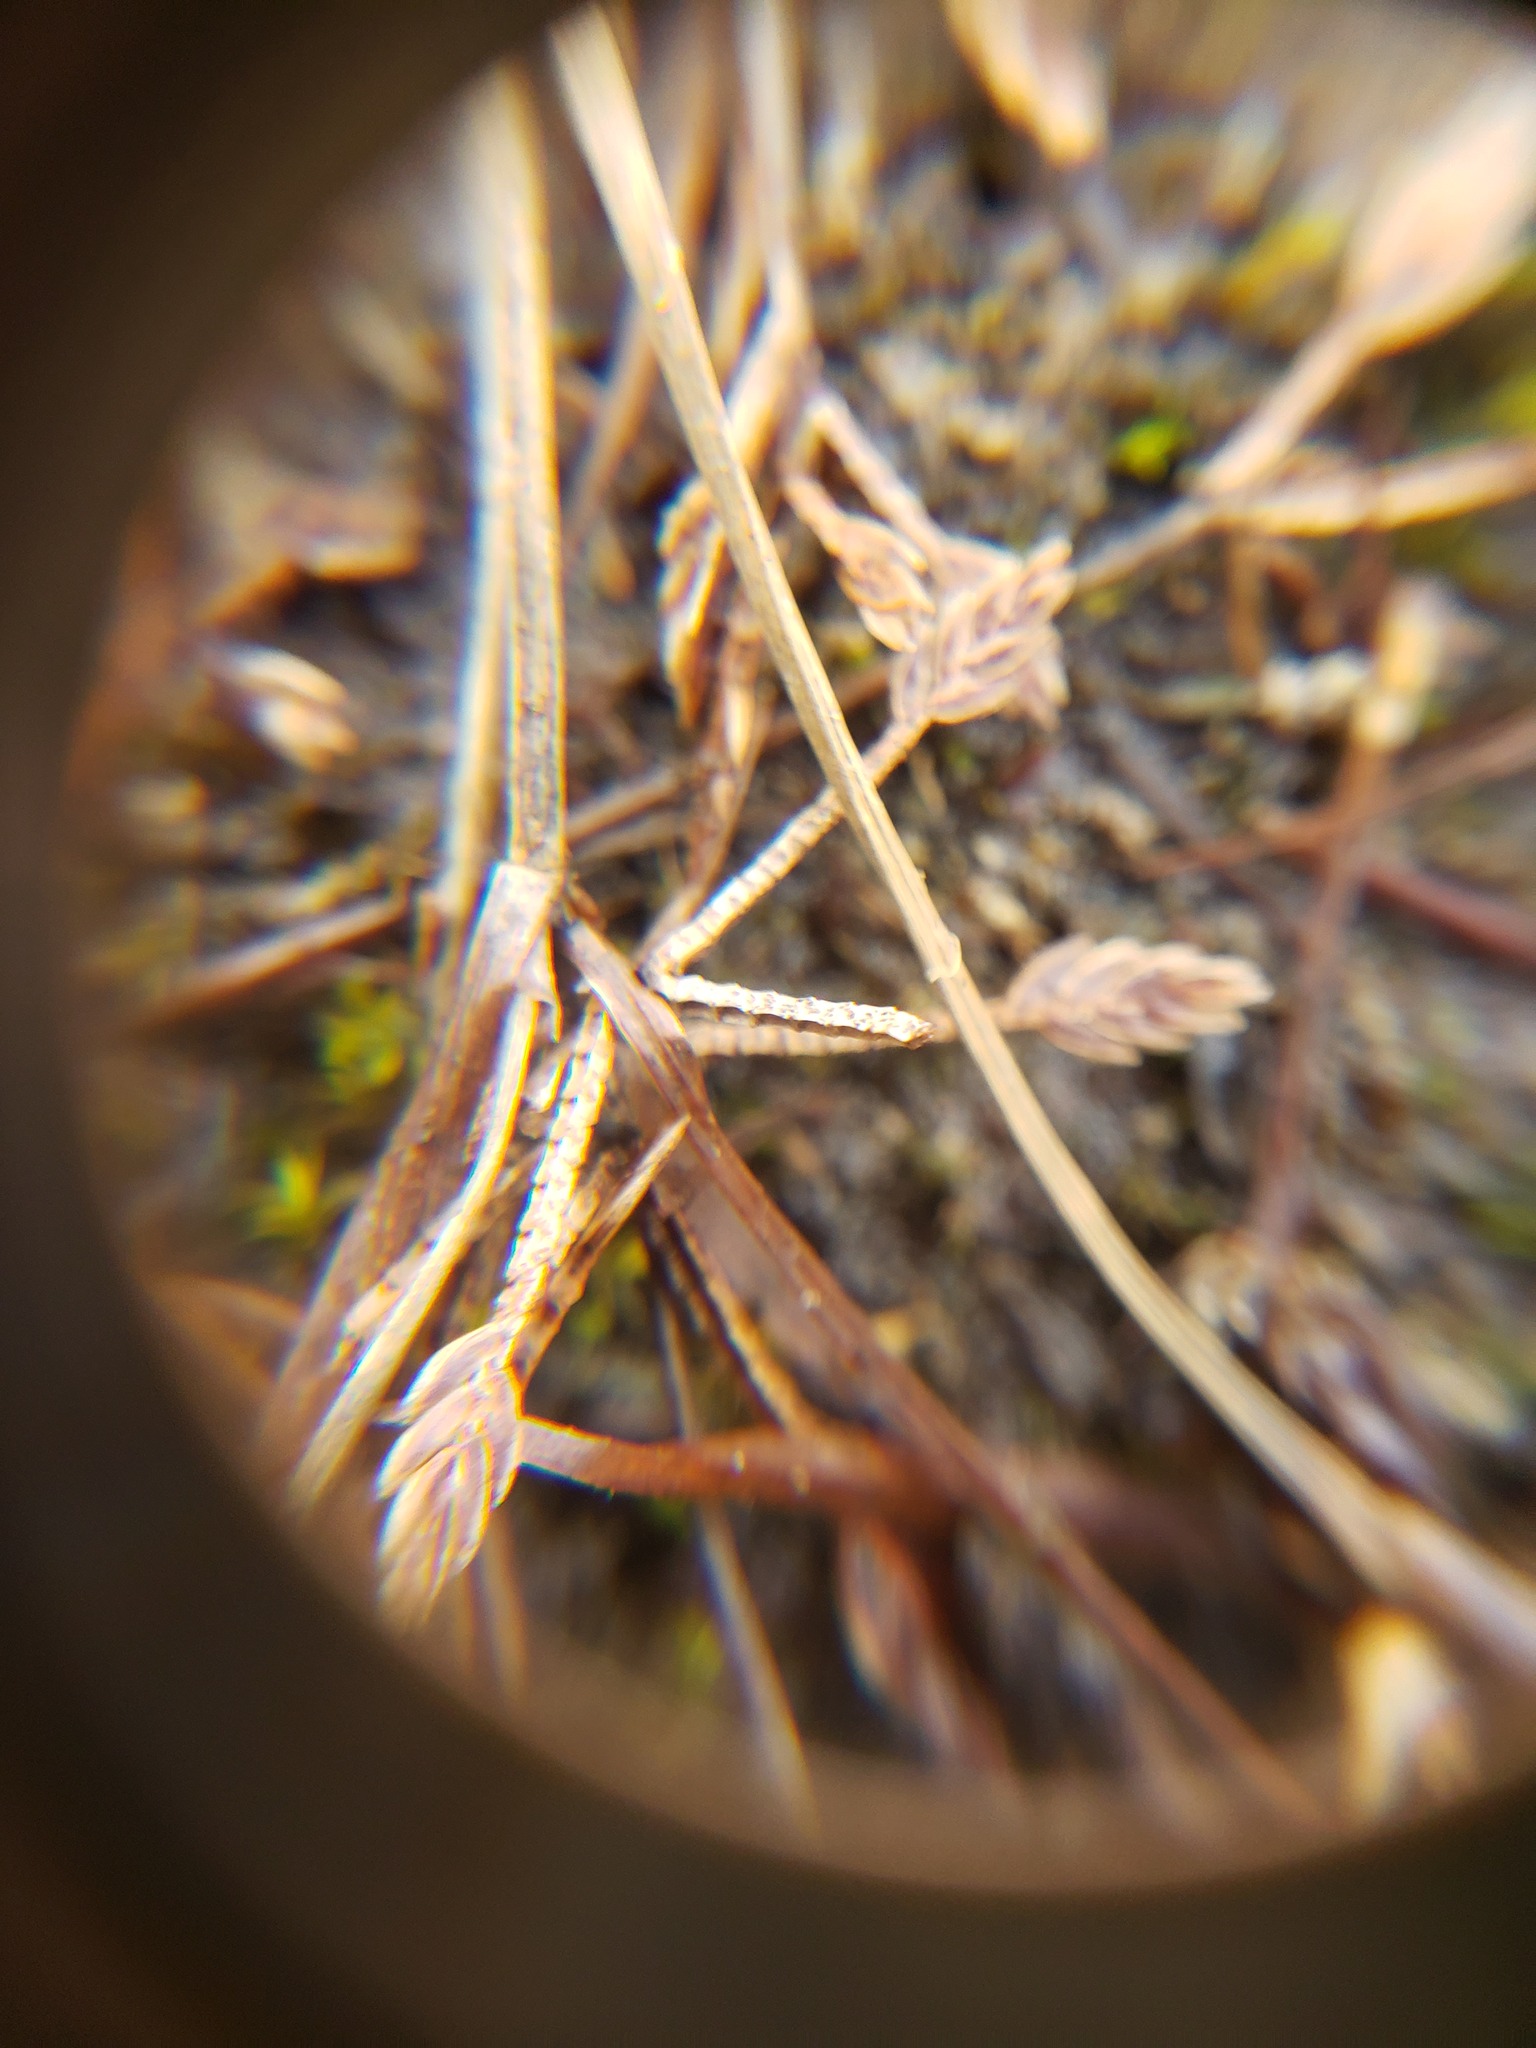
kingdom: Plantae
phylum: Tracheophyta
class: Liliopsida
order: Poales
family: Cyperaceae
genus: Cyperus
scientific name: Cyperus bipartitus
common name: Brook flatsedge
